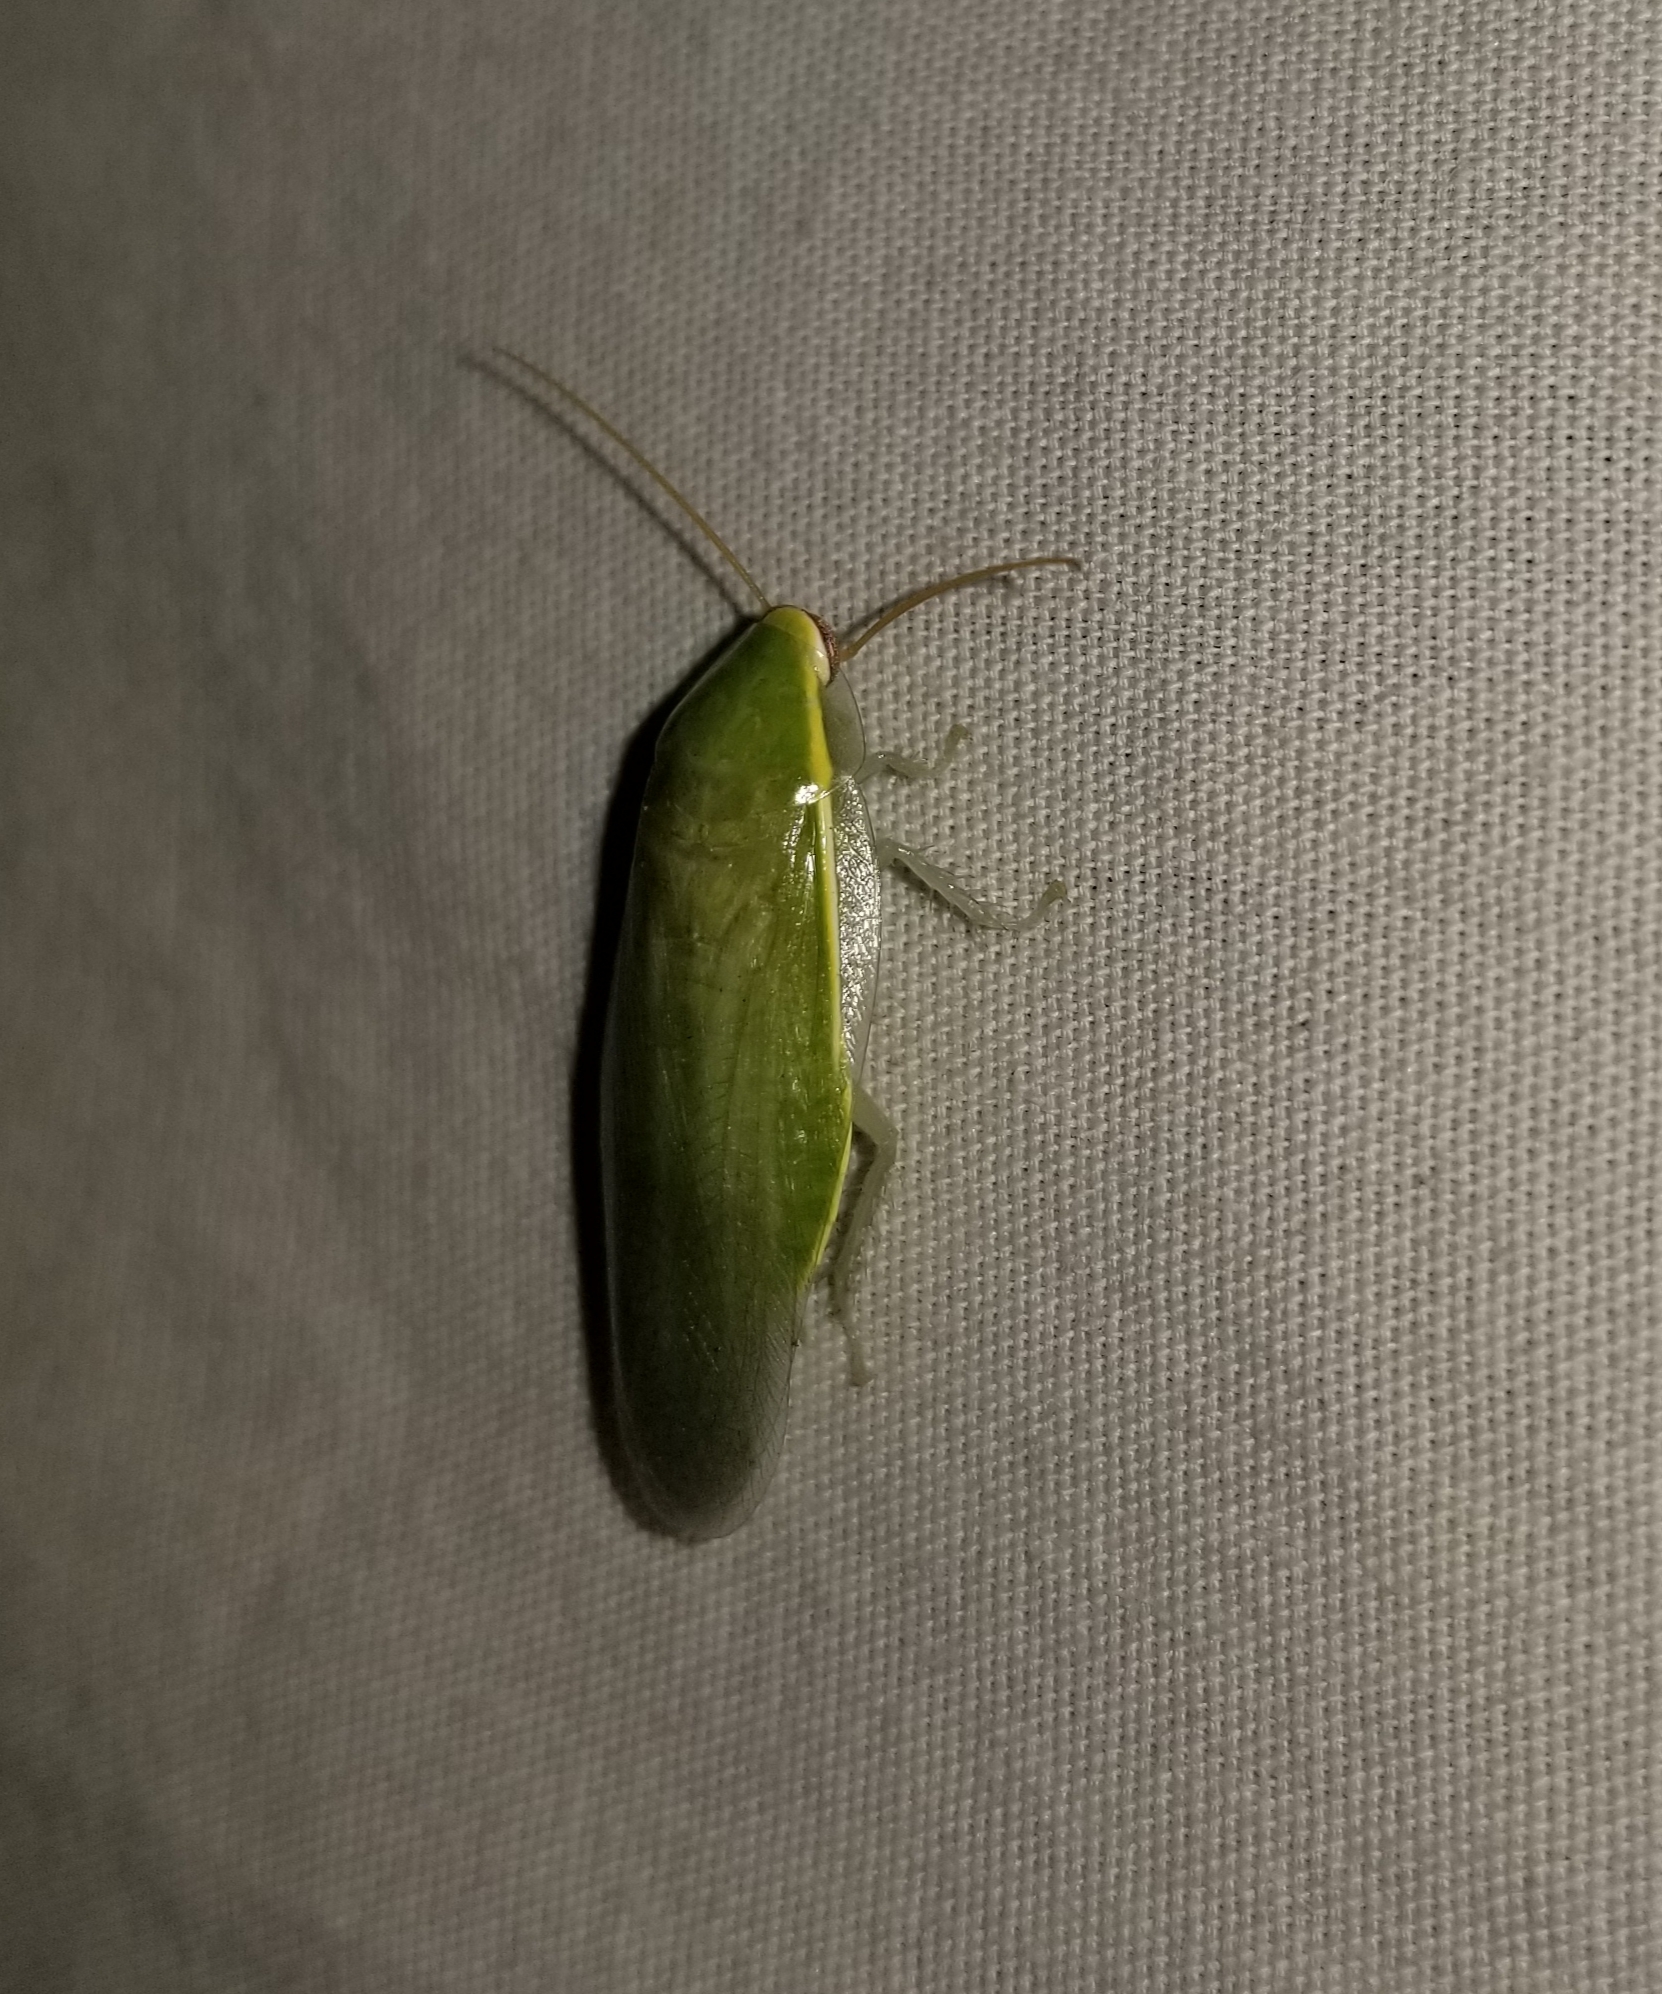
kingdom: Animalia
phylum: Arthropoda
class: Insecta
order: Blattodea
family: Blaberidae
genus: Panchlora
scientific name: Panchlora nivea
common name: Cuban cockroach
